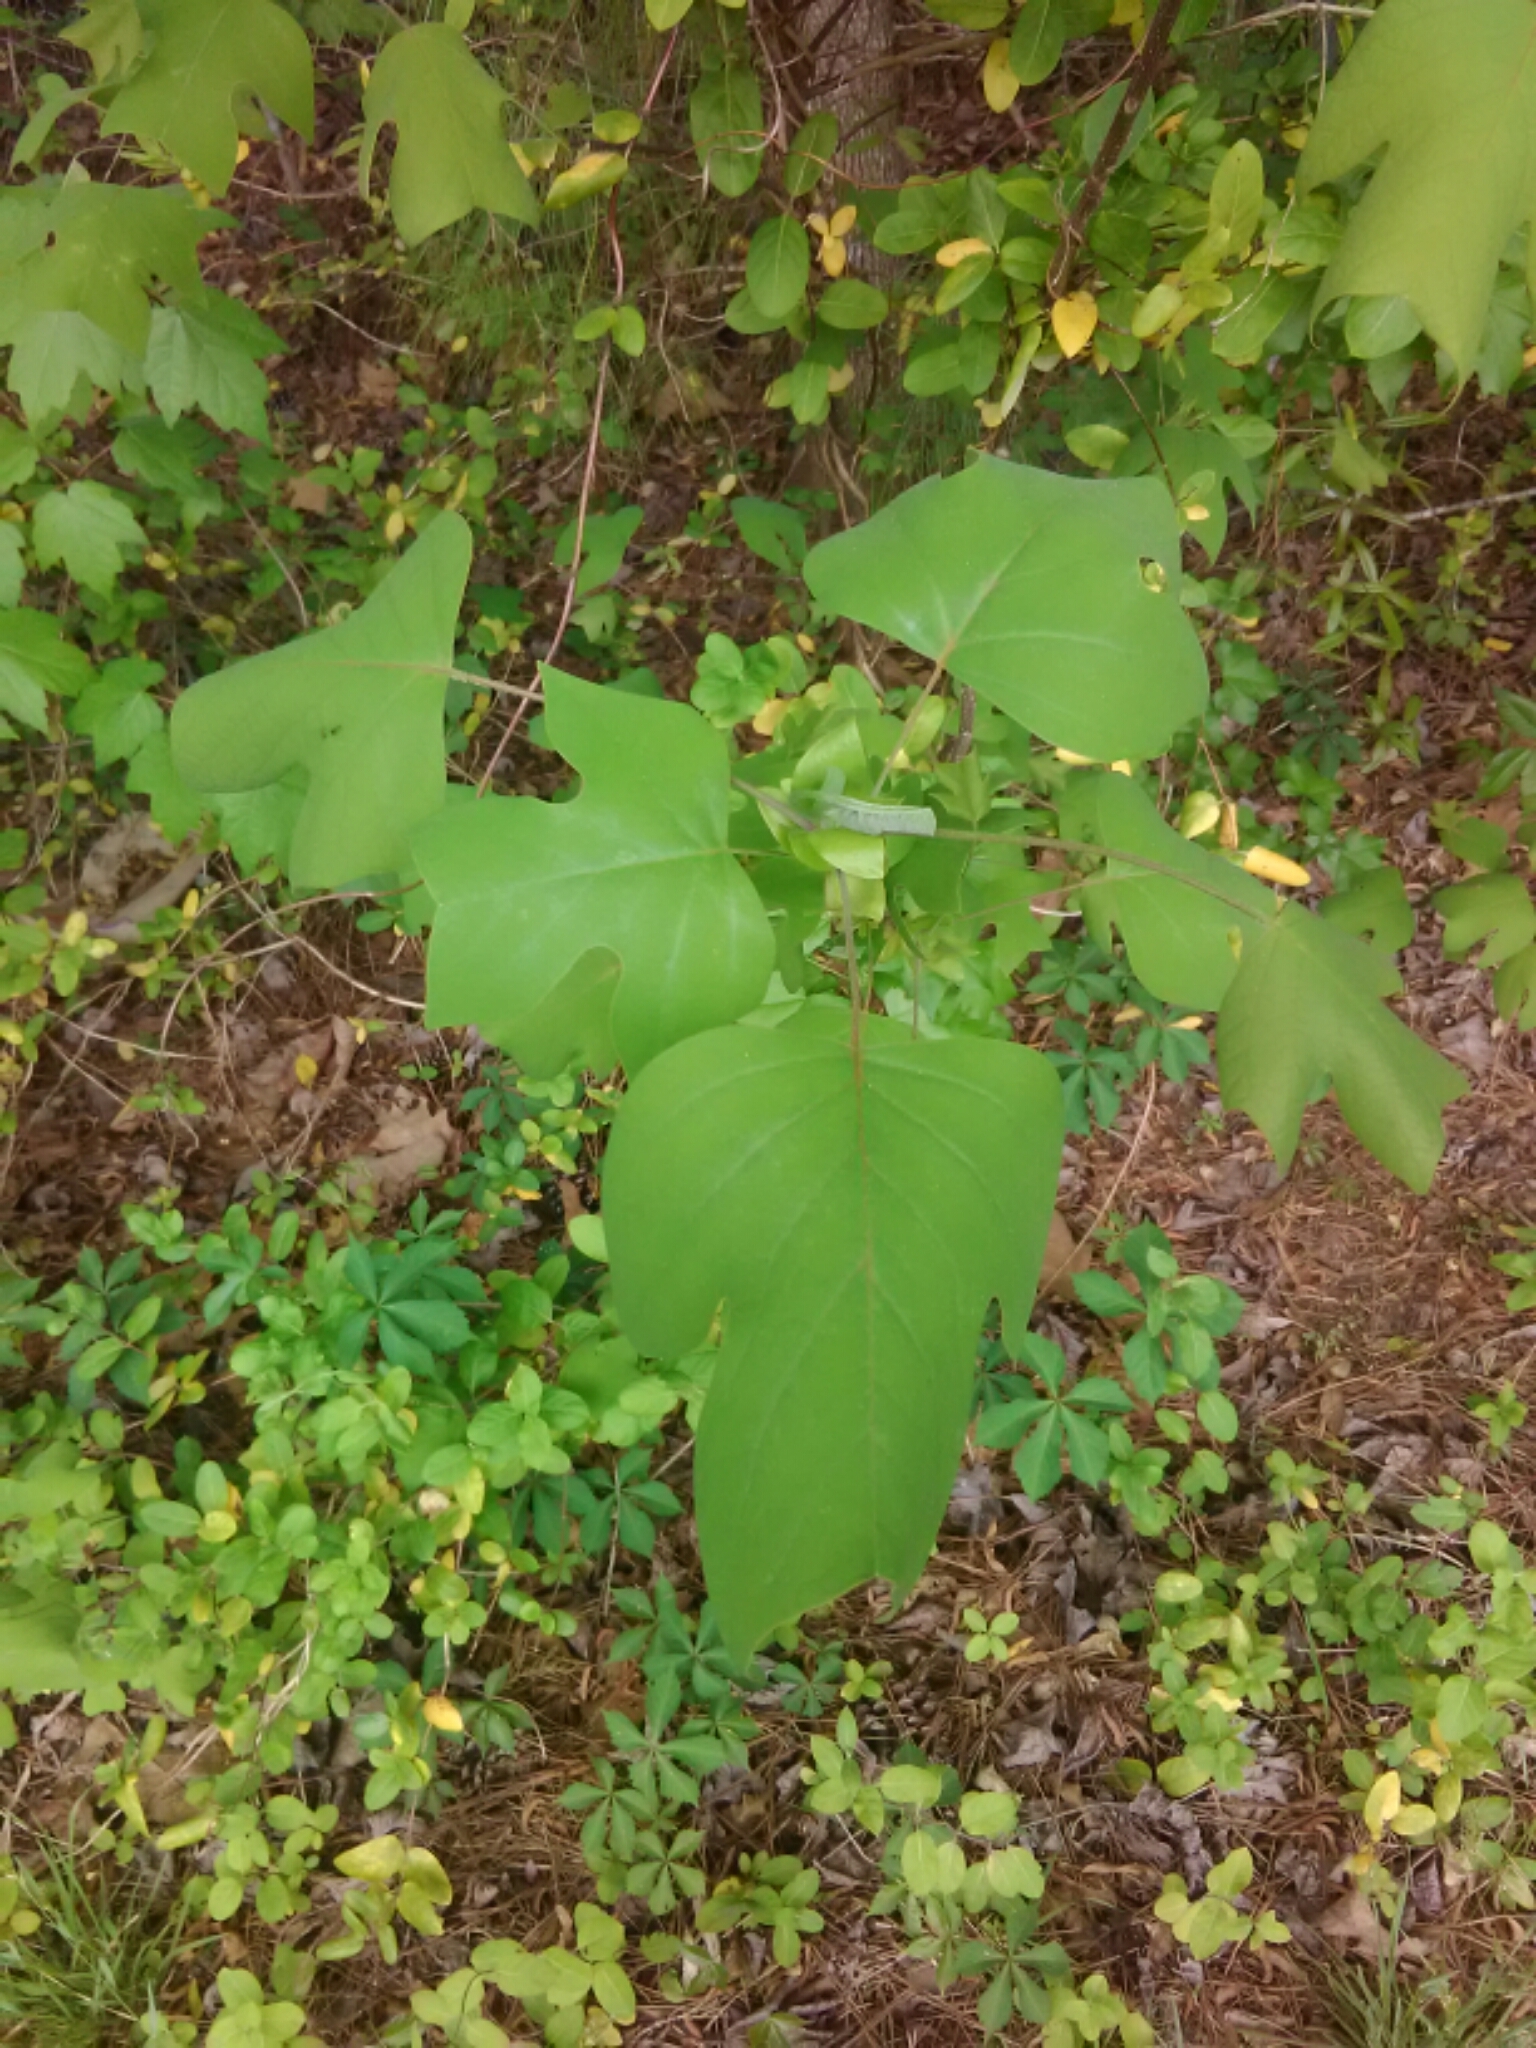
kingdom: Plantae
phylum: Tracheophyta
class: Magnoliopsida
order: Magnoliales
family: Magnoliaceae
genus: Liriodendron
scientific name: Liriodendron tulipifera
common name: Tulip tree
